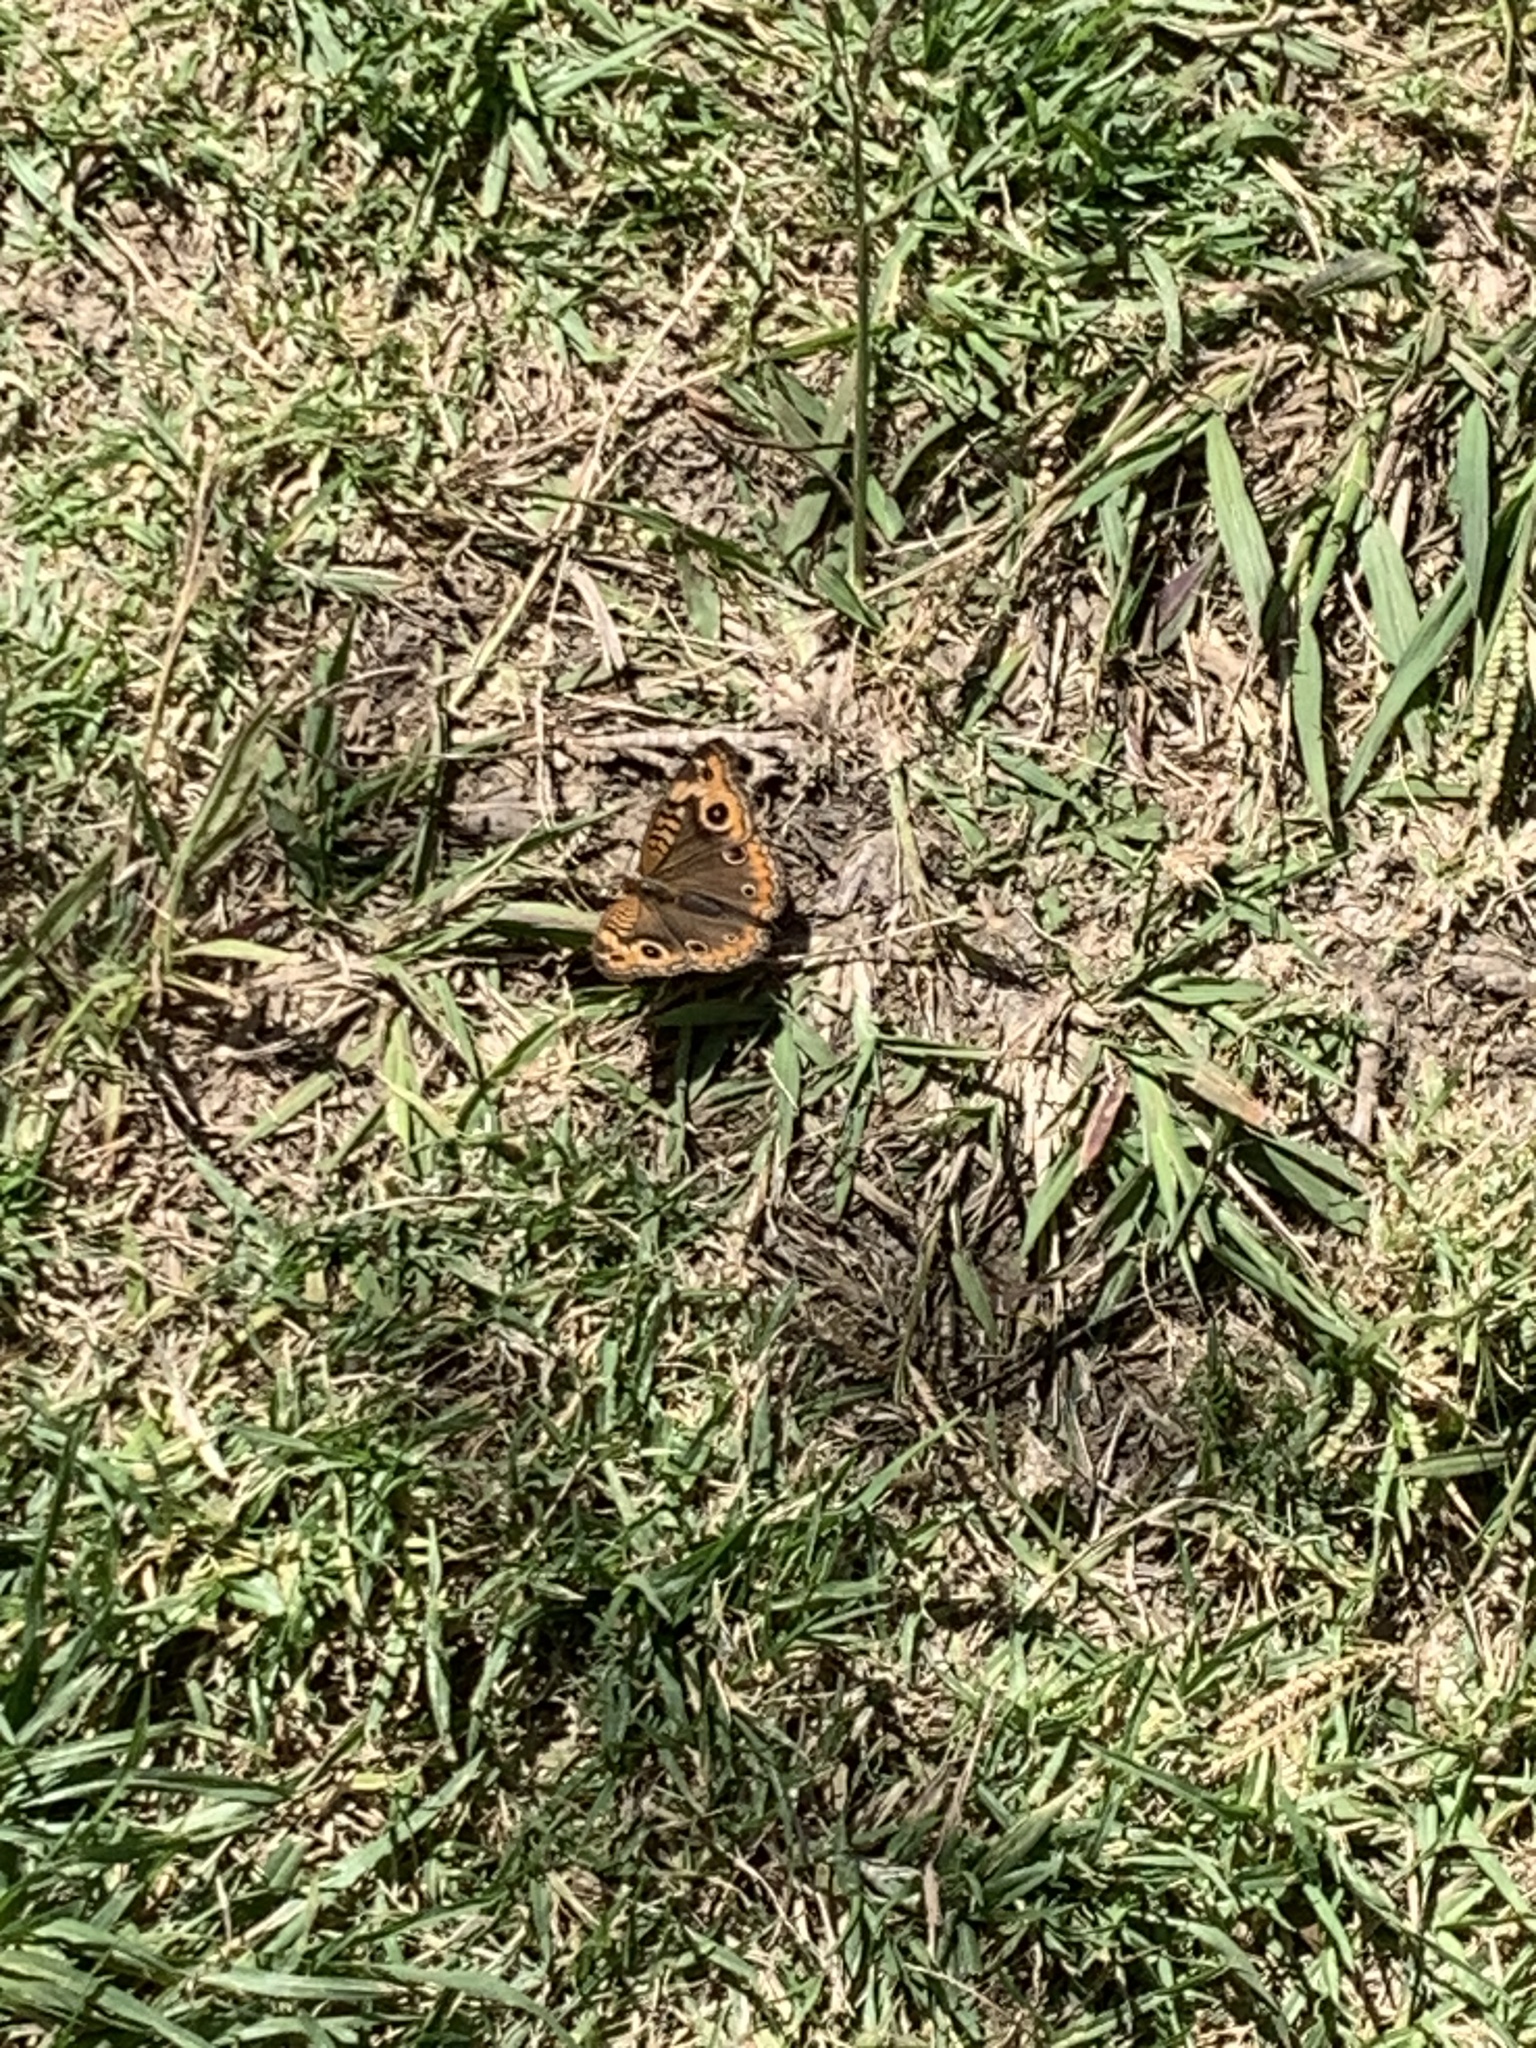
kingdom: Animalia
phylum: Arthropoda
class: Insecta
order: Lepidoptera
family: Nymphalidae
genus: Junonia
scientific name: Junonia lavinia
